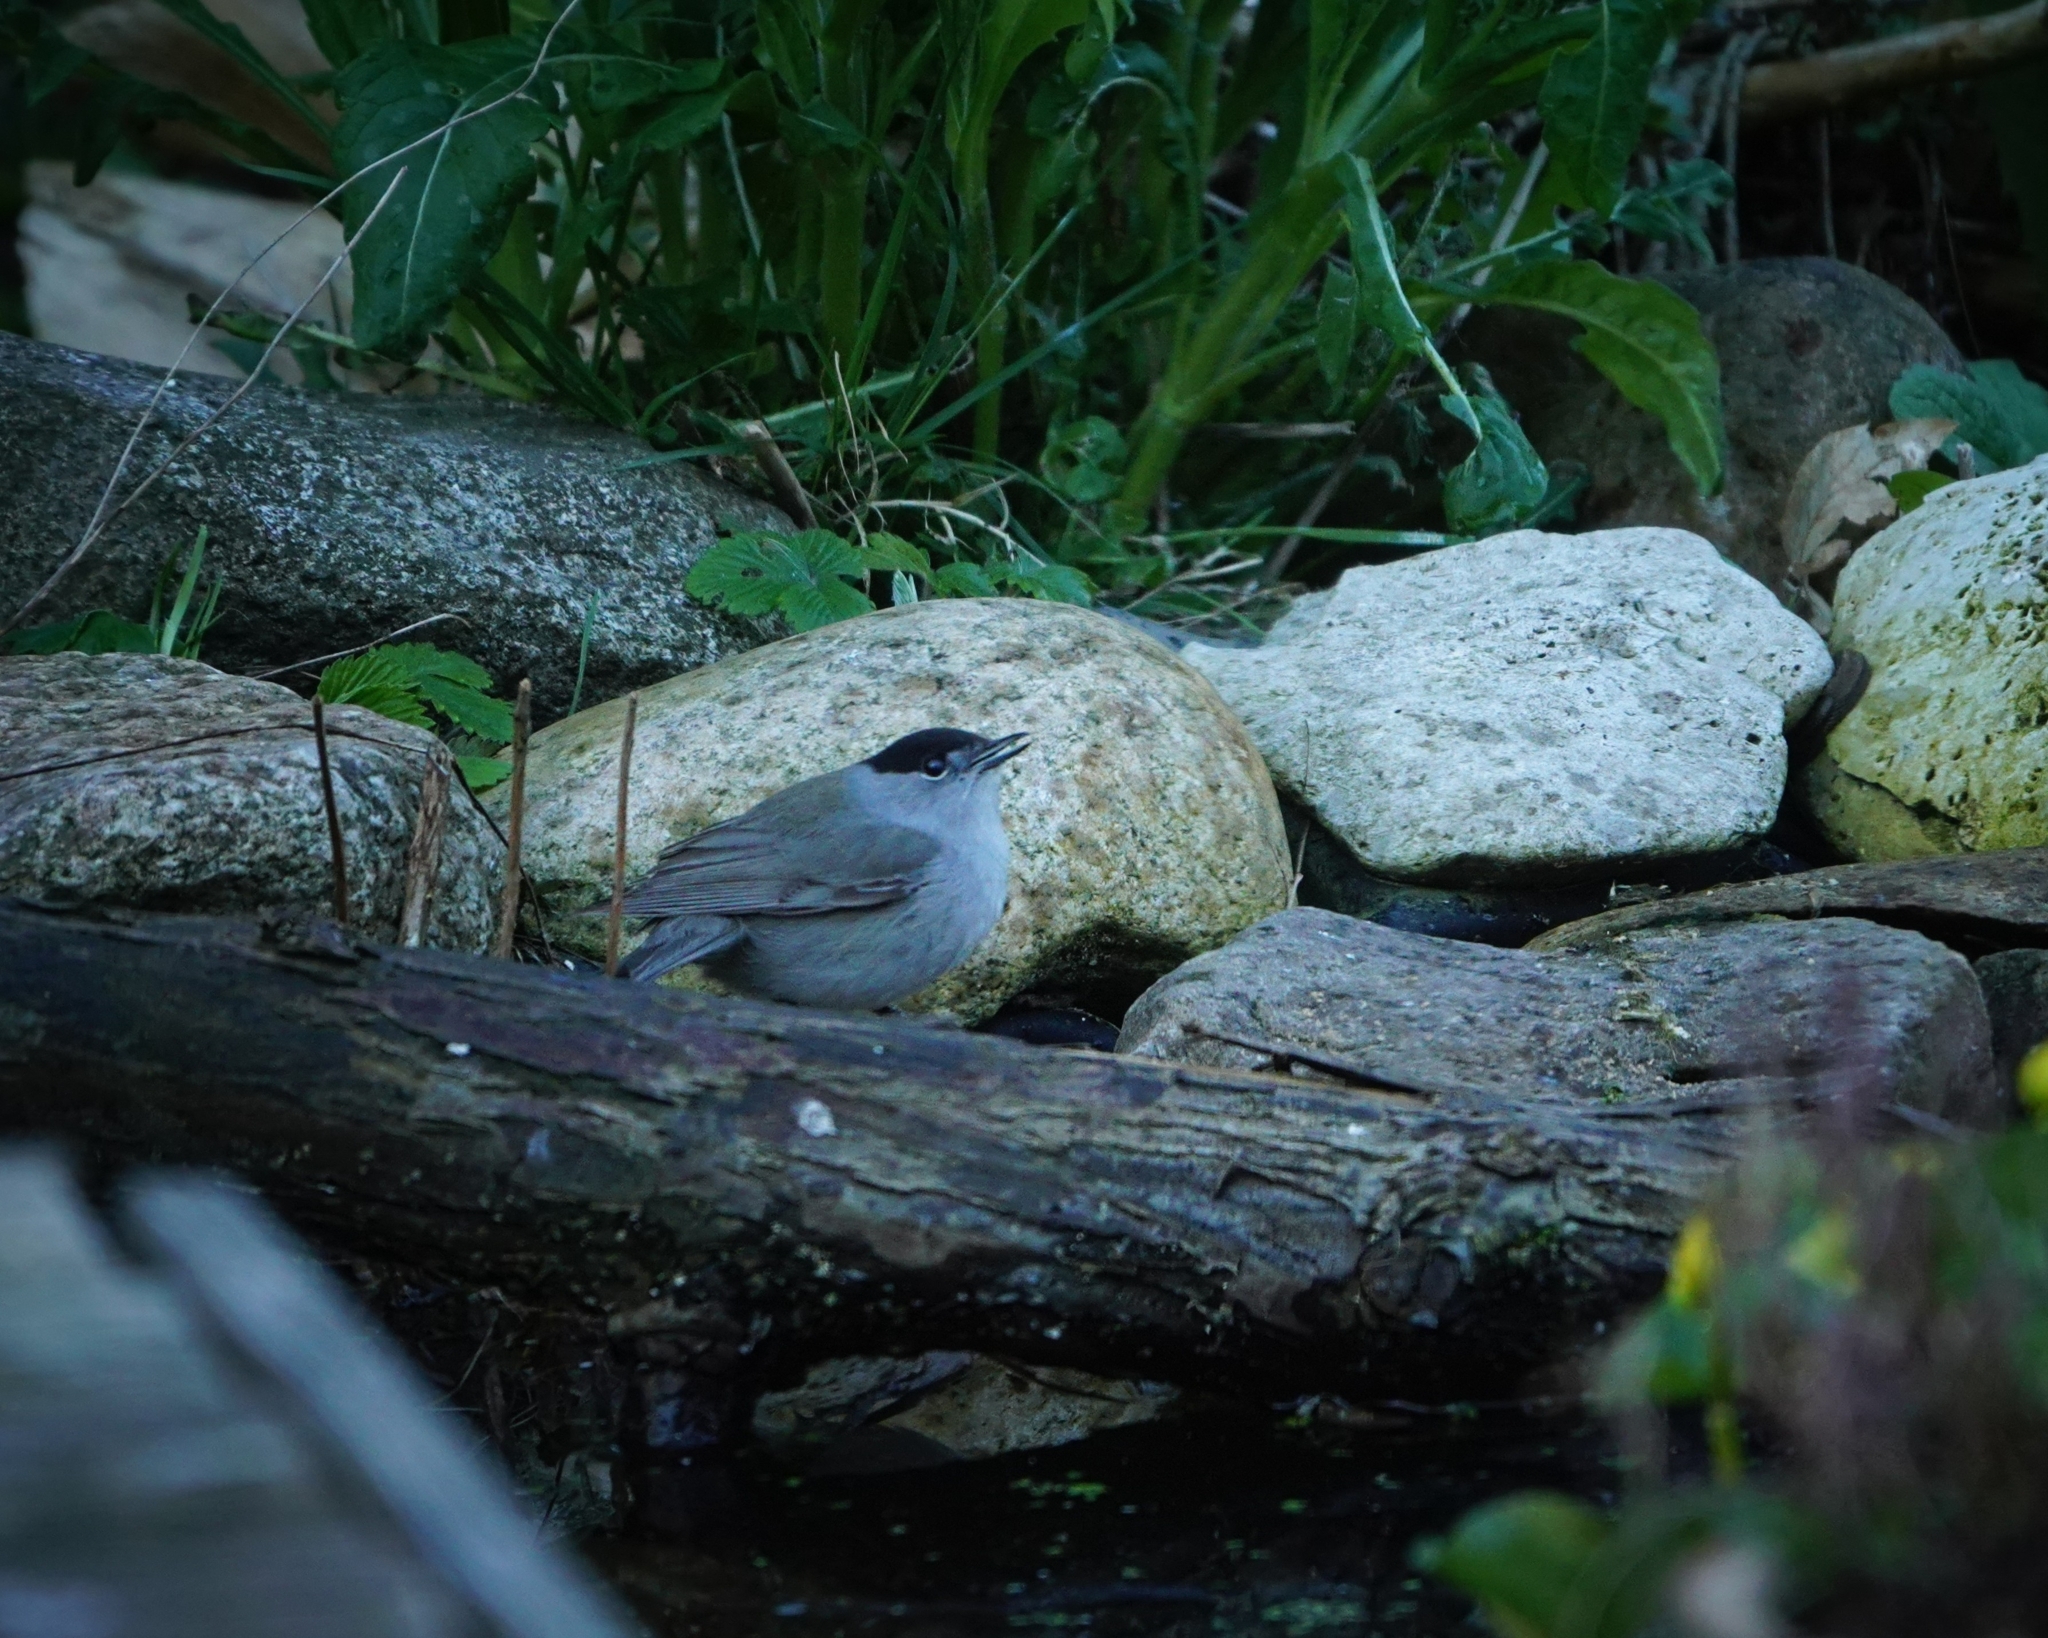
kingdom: Animalia
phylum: Chordata
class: Aves
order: Passeriformes
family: Sylviidae
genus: Sylvia
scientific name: Sylvia atricapilla
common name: Eurasian blackcap
